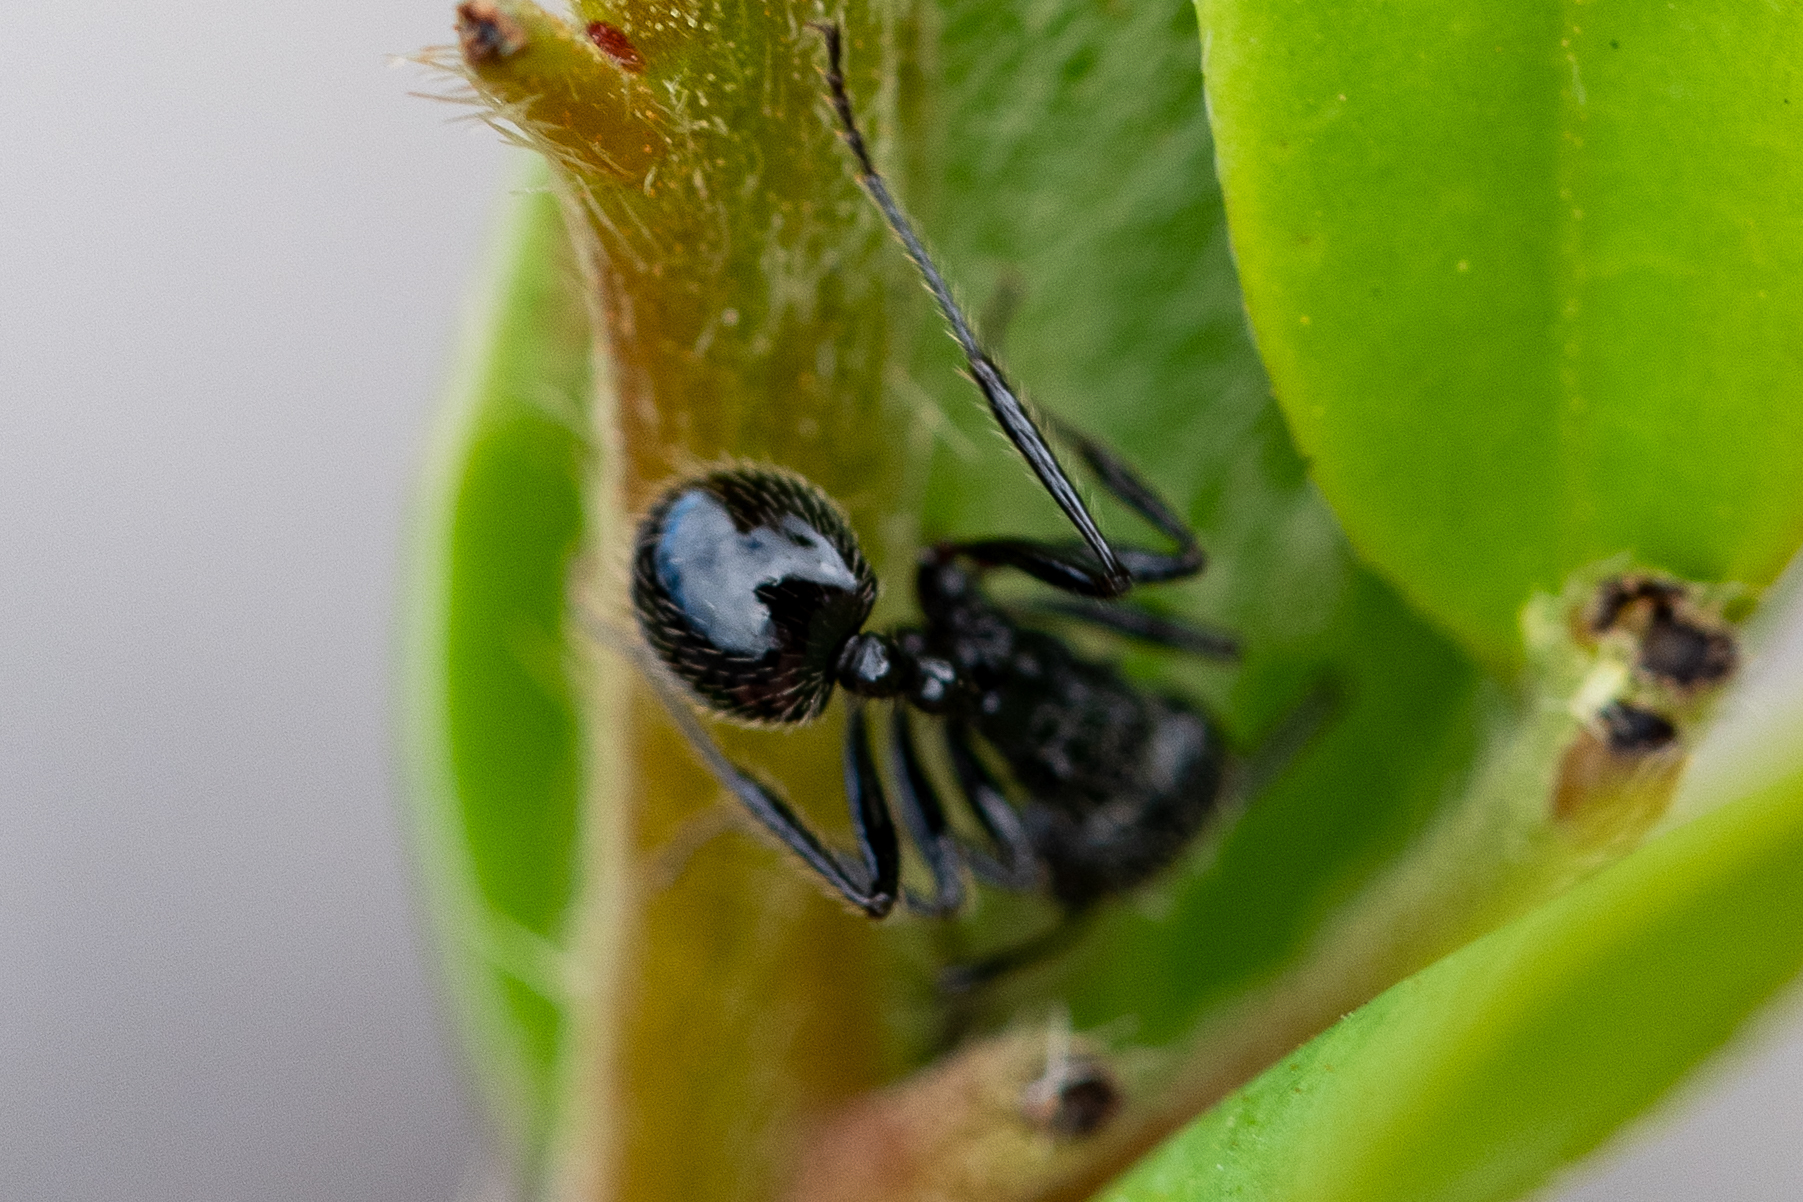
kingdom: Animalia
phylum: Arthropoda
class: Insecta
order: Hymenoptera
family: Formicidae
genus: Myrmicaria
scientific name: Myrmicaria nigra
